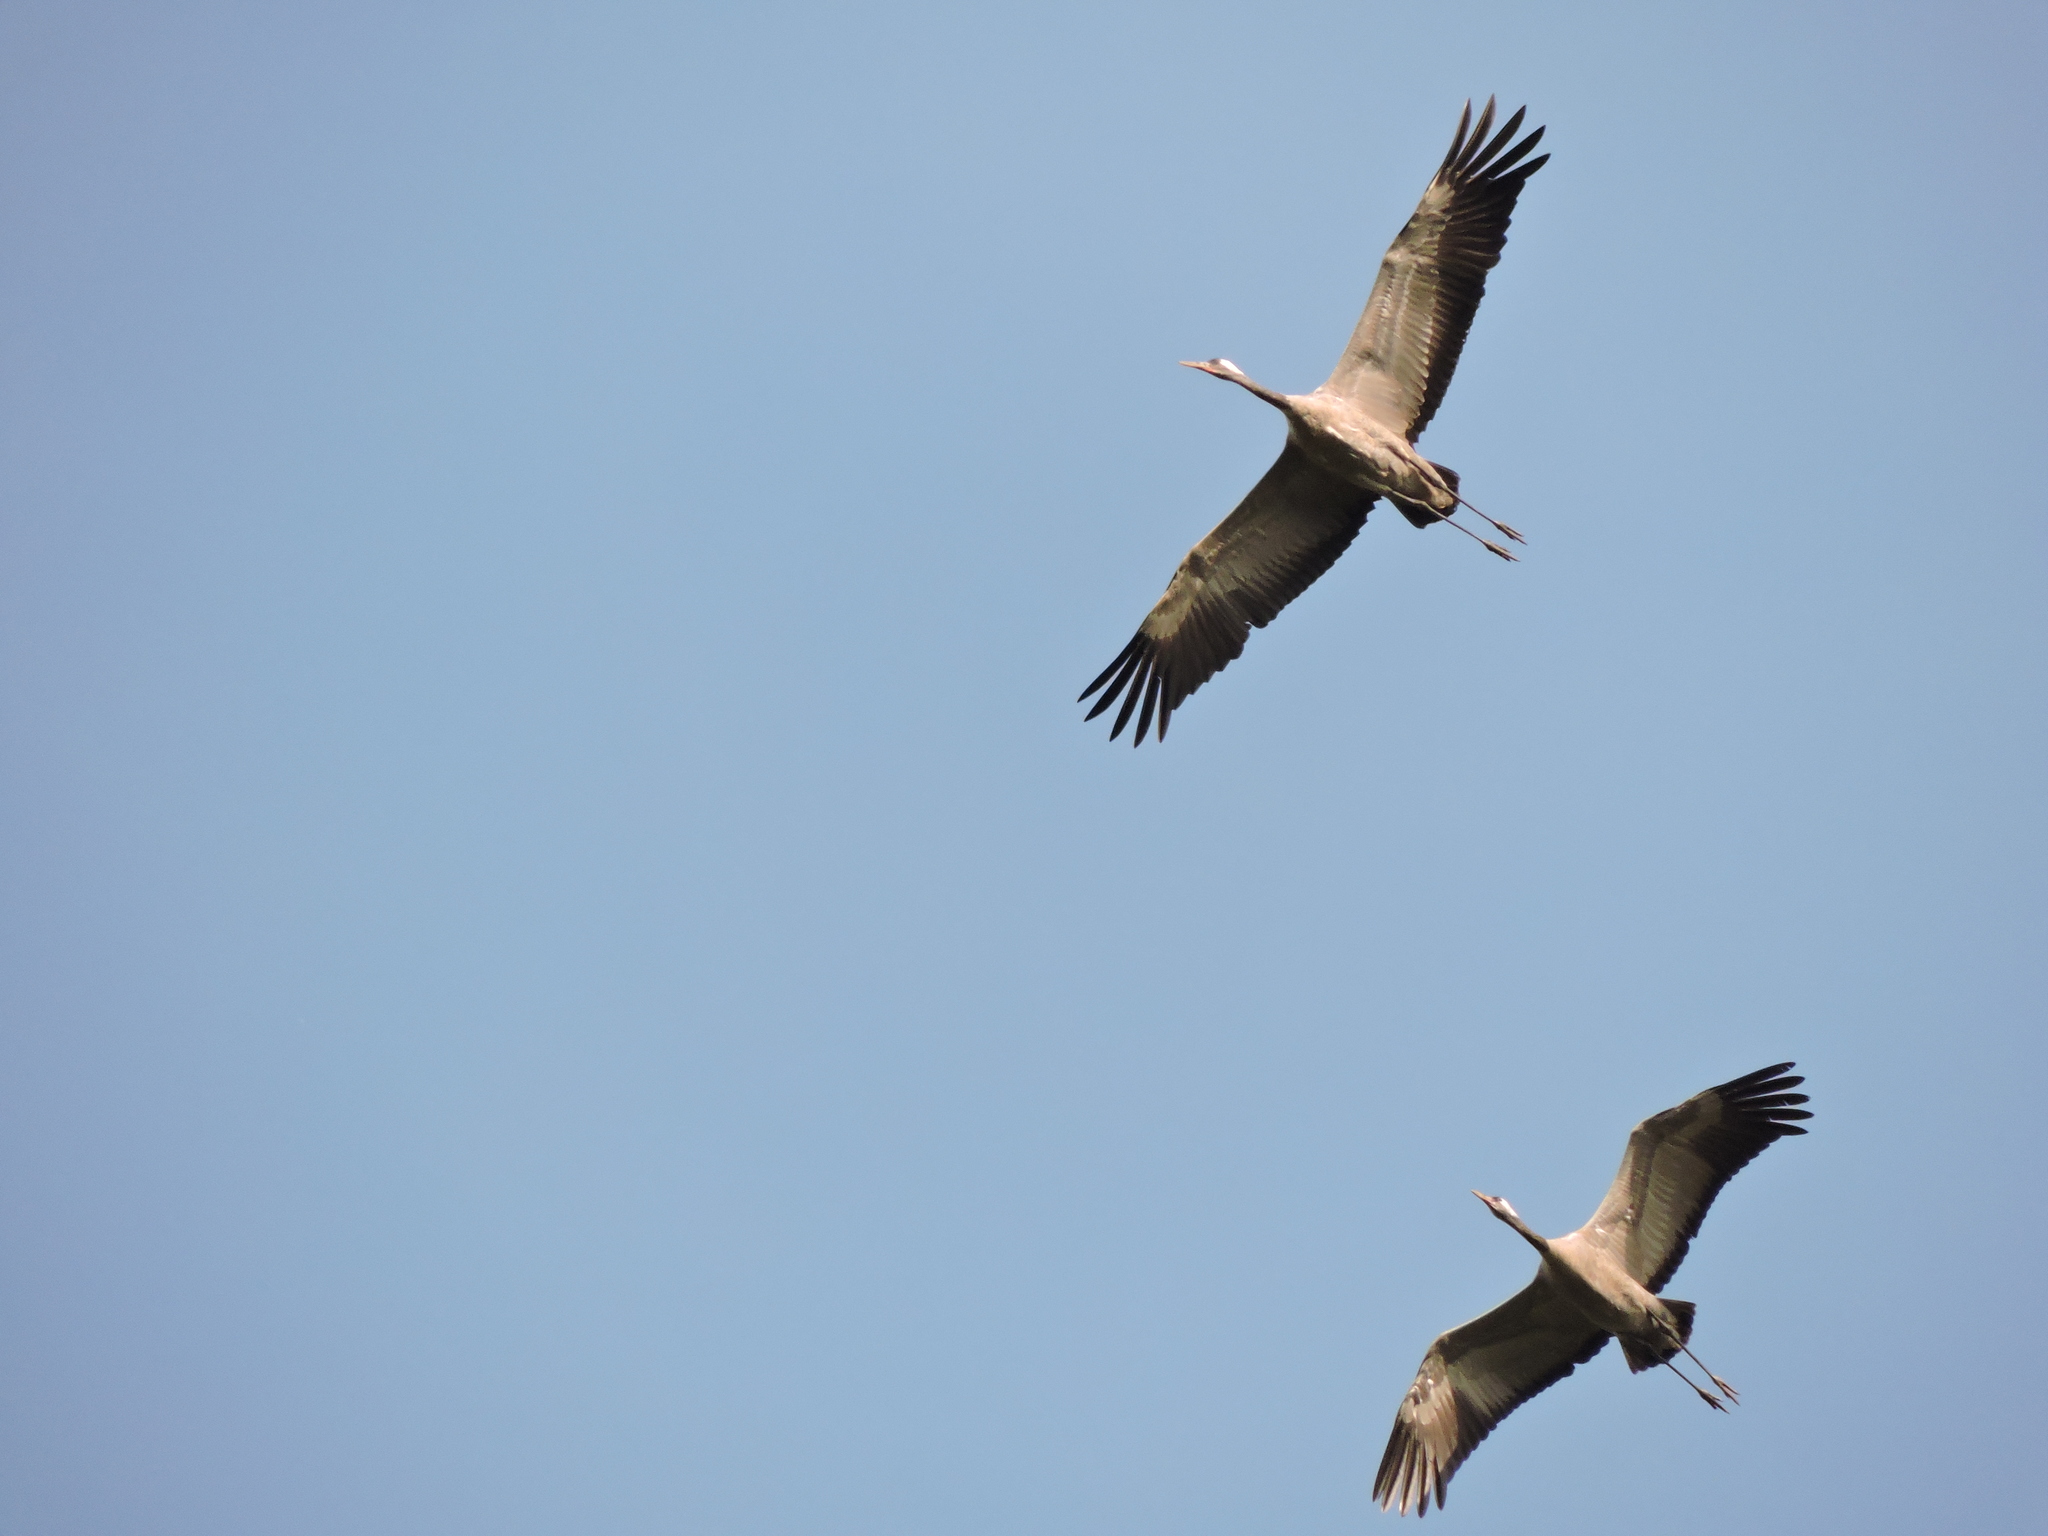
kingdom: Animalia
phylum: Chordata
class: Aves
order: Gruiformes
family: Gruidae
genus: Grus
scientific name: Grus grus
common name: Common crane
